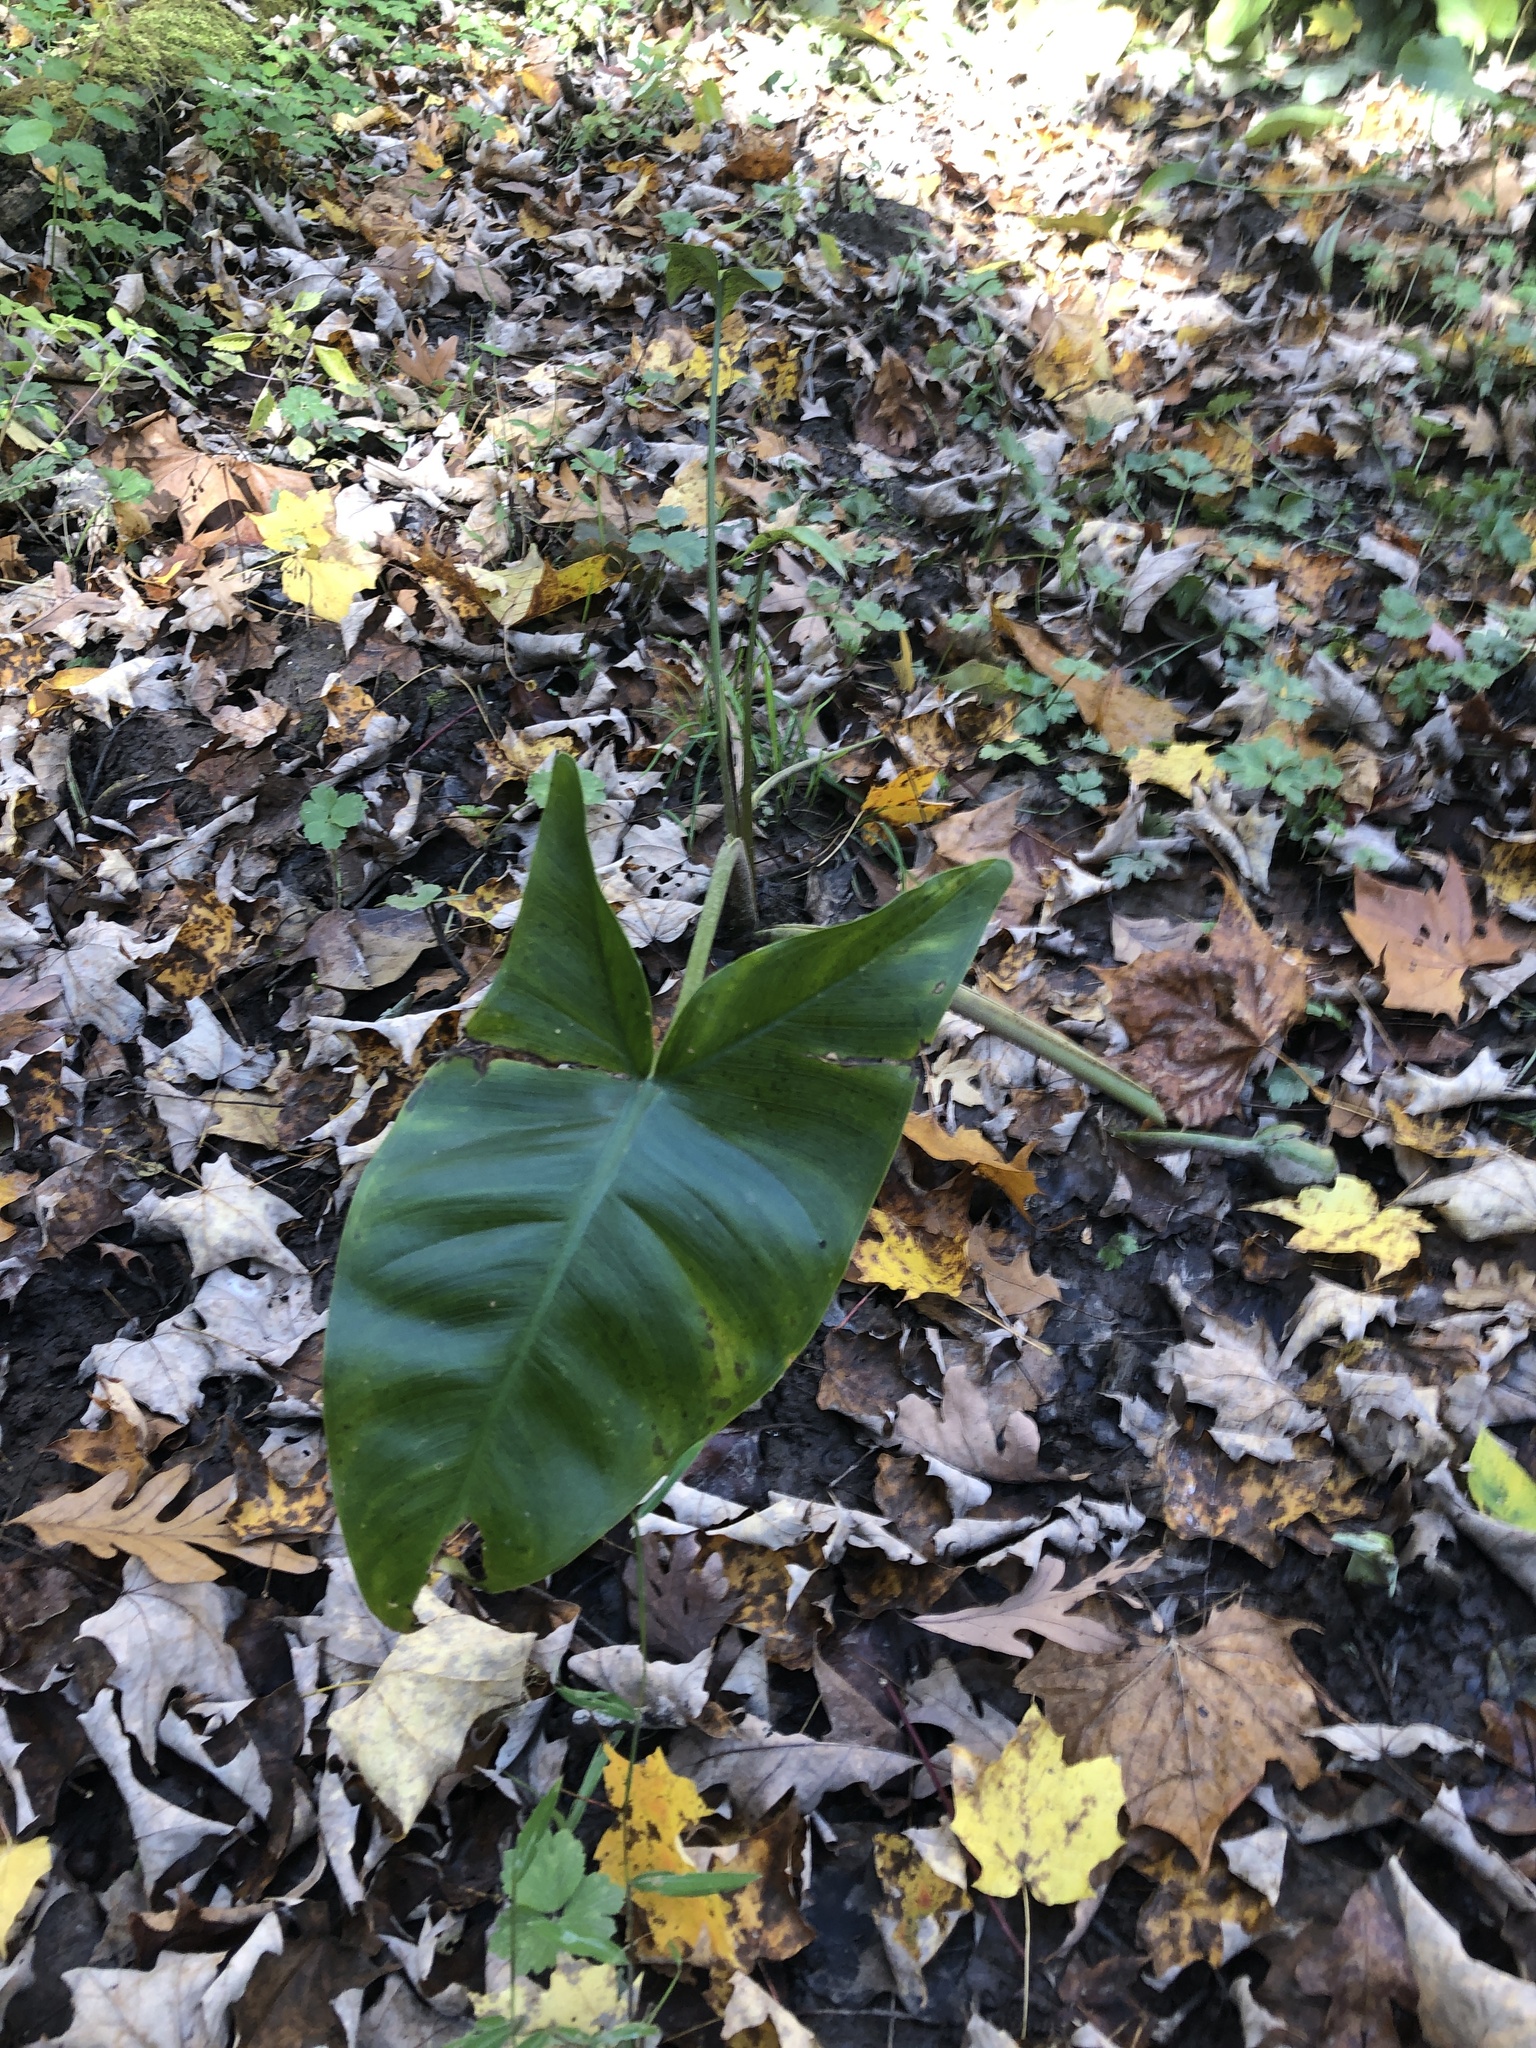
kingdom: Plantae
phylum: Tracheophyta
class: Liliopsida
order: Alismatales
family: Araceae
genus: Peltandra
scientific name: Peltandra virginica
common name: Arrow arum
